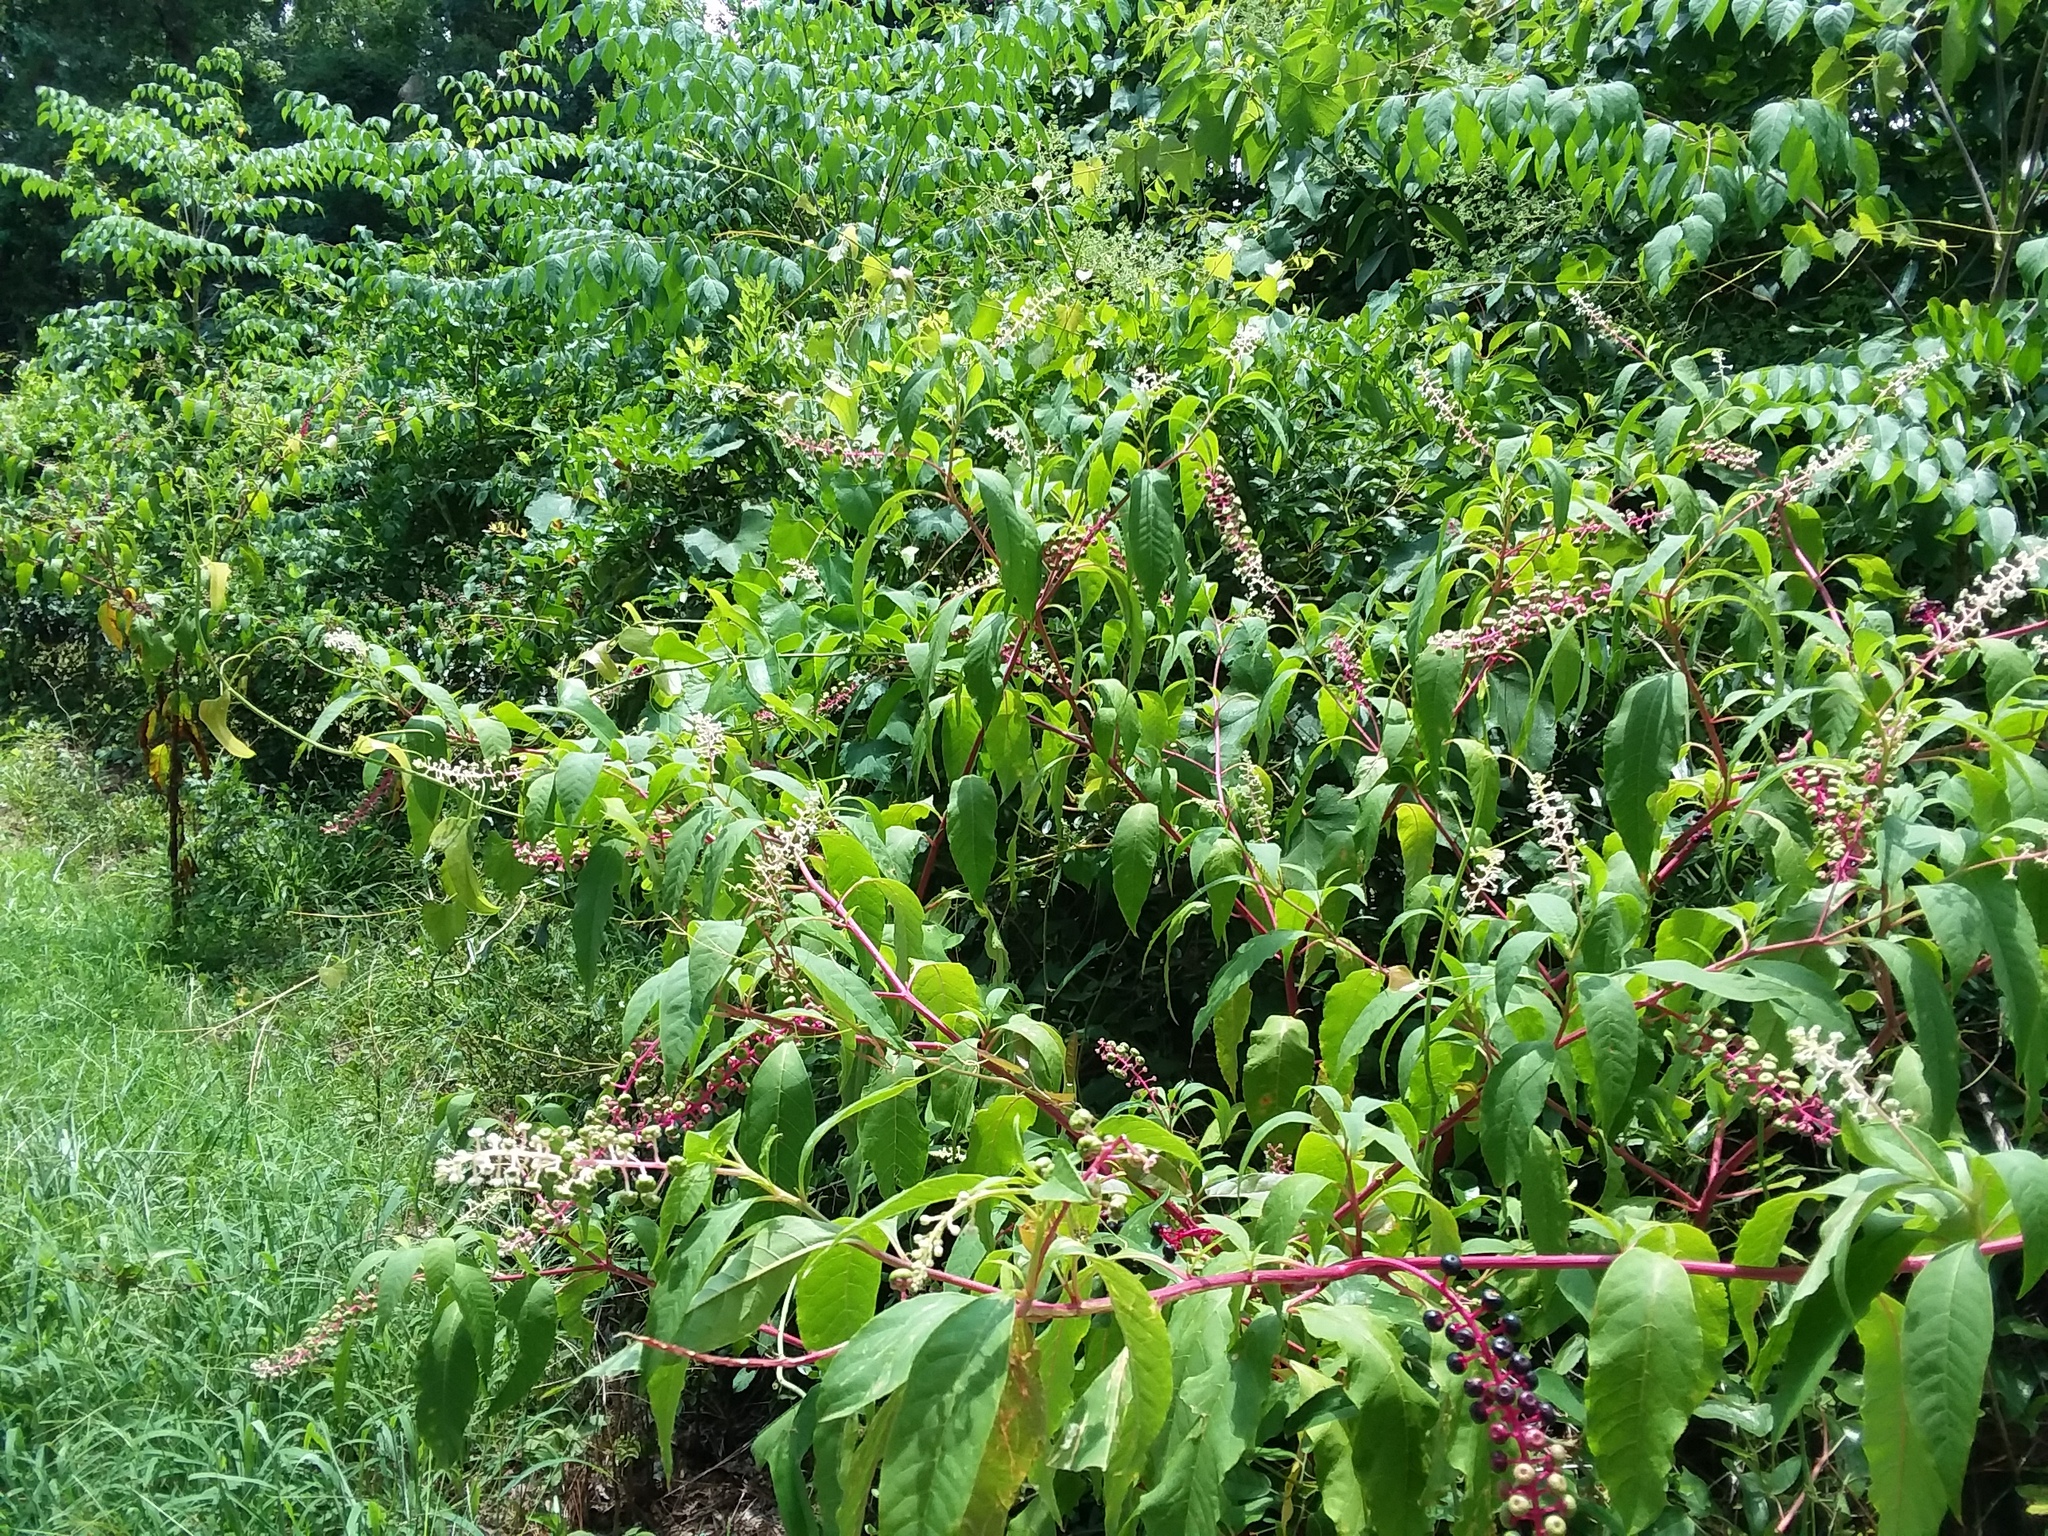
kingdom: Plantae
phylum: Tracheophyta
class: Magnoliopsida
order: Caryophyllales
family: Phytolaccaceae
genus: Phytolacca
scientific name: Phytolacca americana
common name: American pokeweed
